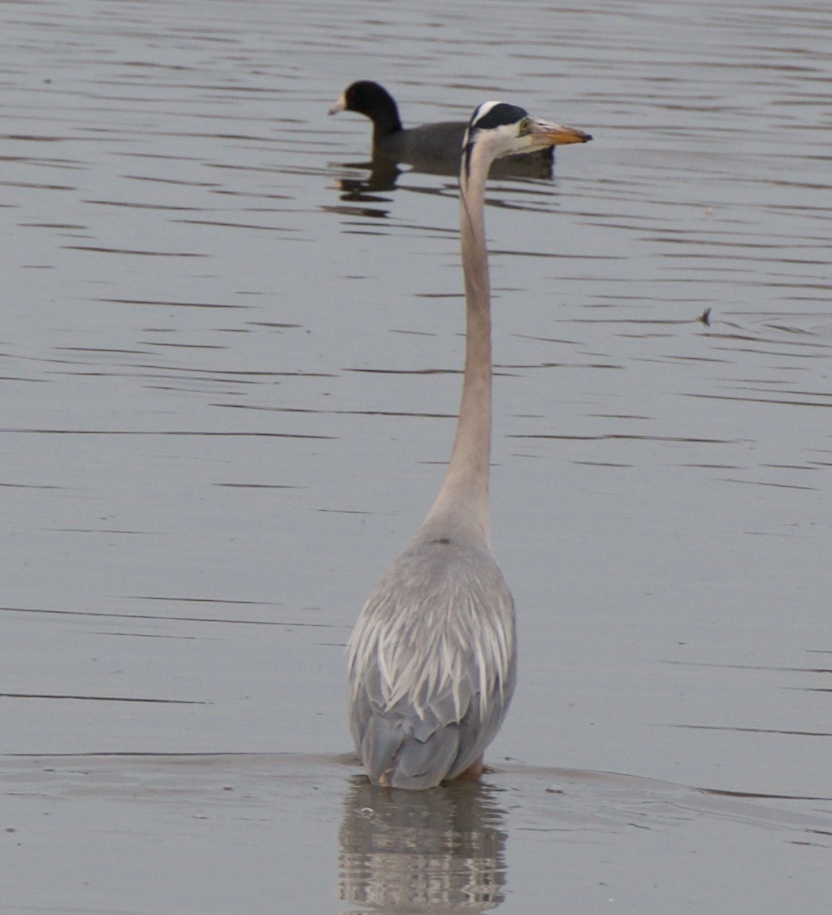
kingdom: Animalia
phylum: Chordata
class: Aves
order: Pelecaniformes
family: Ardeidae
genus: Ardea
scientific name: Ardea herodias
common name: Great blue heron
